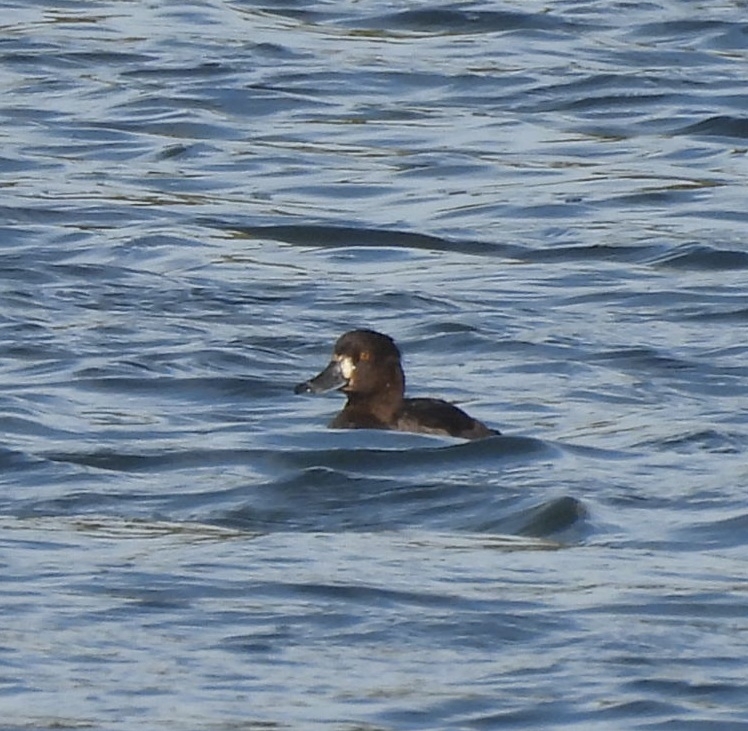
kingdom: Animalia
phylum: Chordata
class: Aves
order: Anseriformes
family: Anatidae
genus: Aythya
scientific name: Aythya fuligula
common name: Tufted duck
